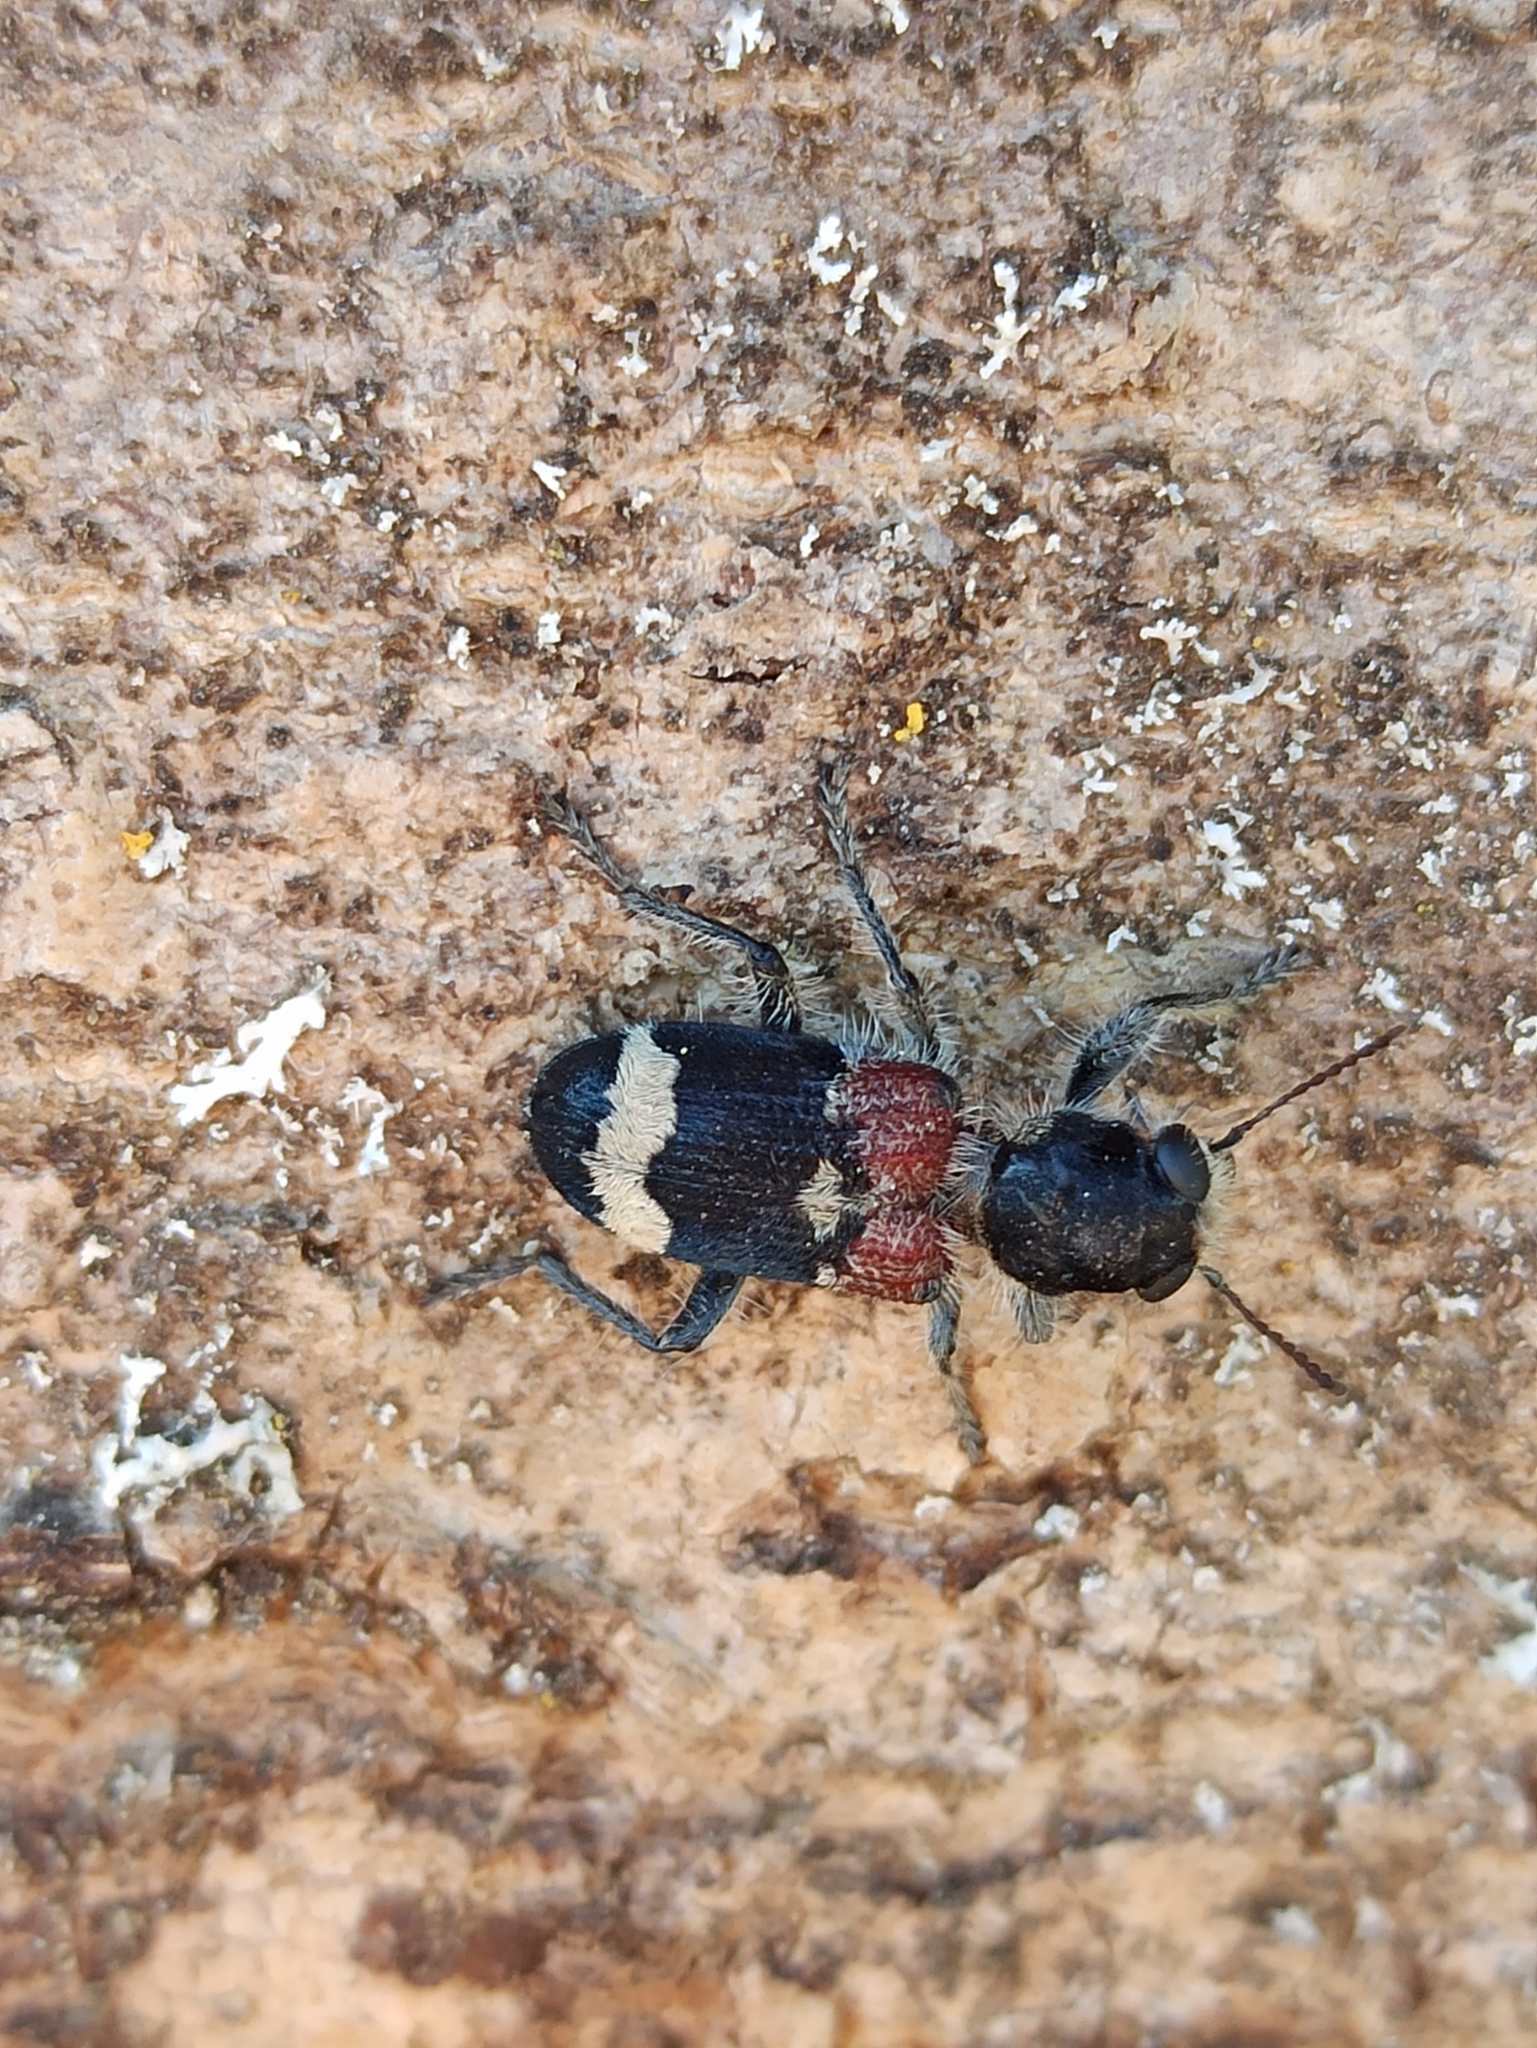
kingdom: Animalia
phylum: Arthropoda
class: Insecta
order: Coleoptera
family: Cleridae
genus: Clerus
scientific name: Clerus mutillarius
